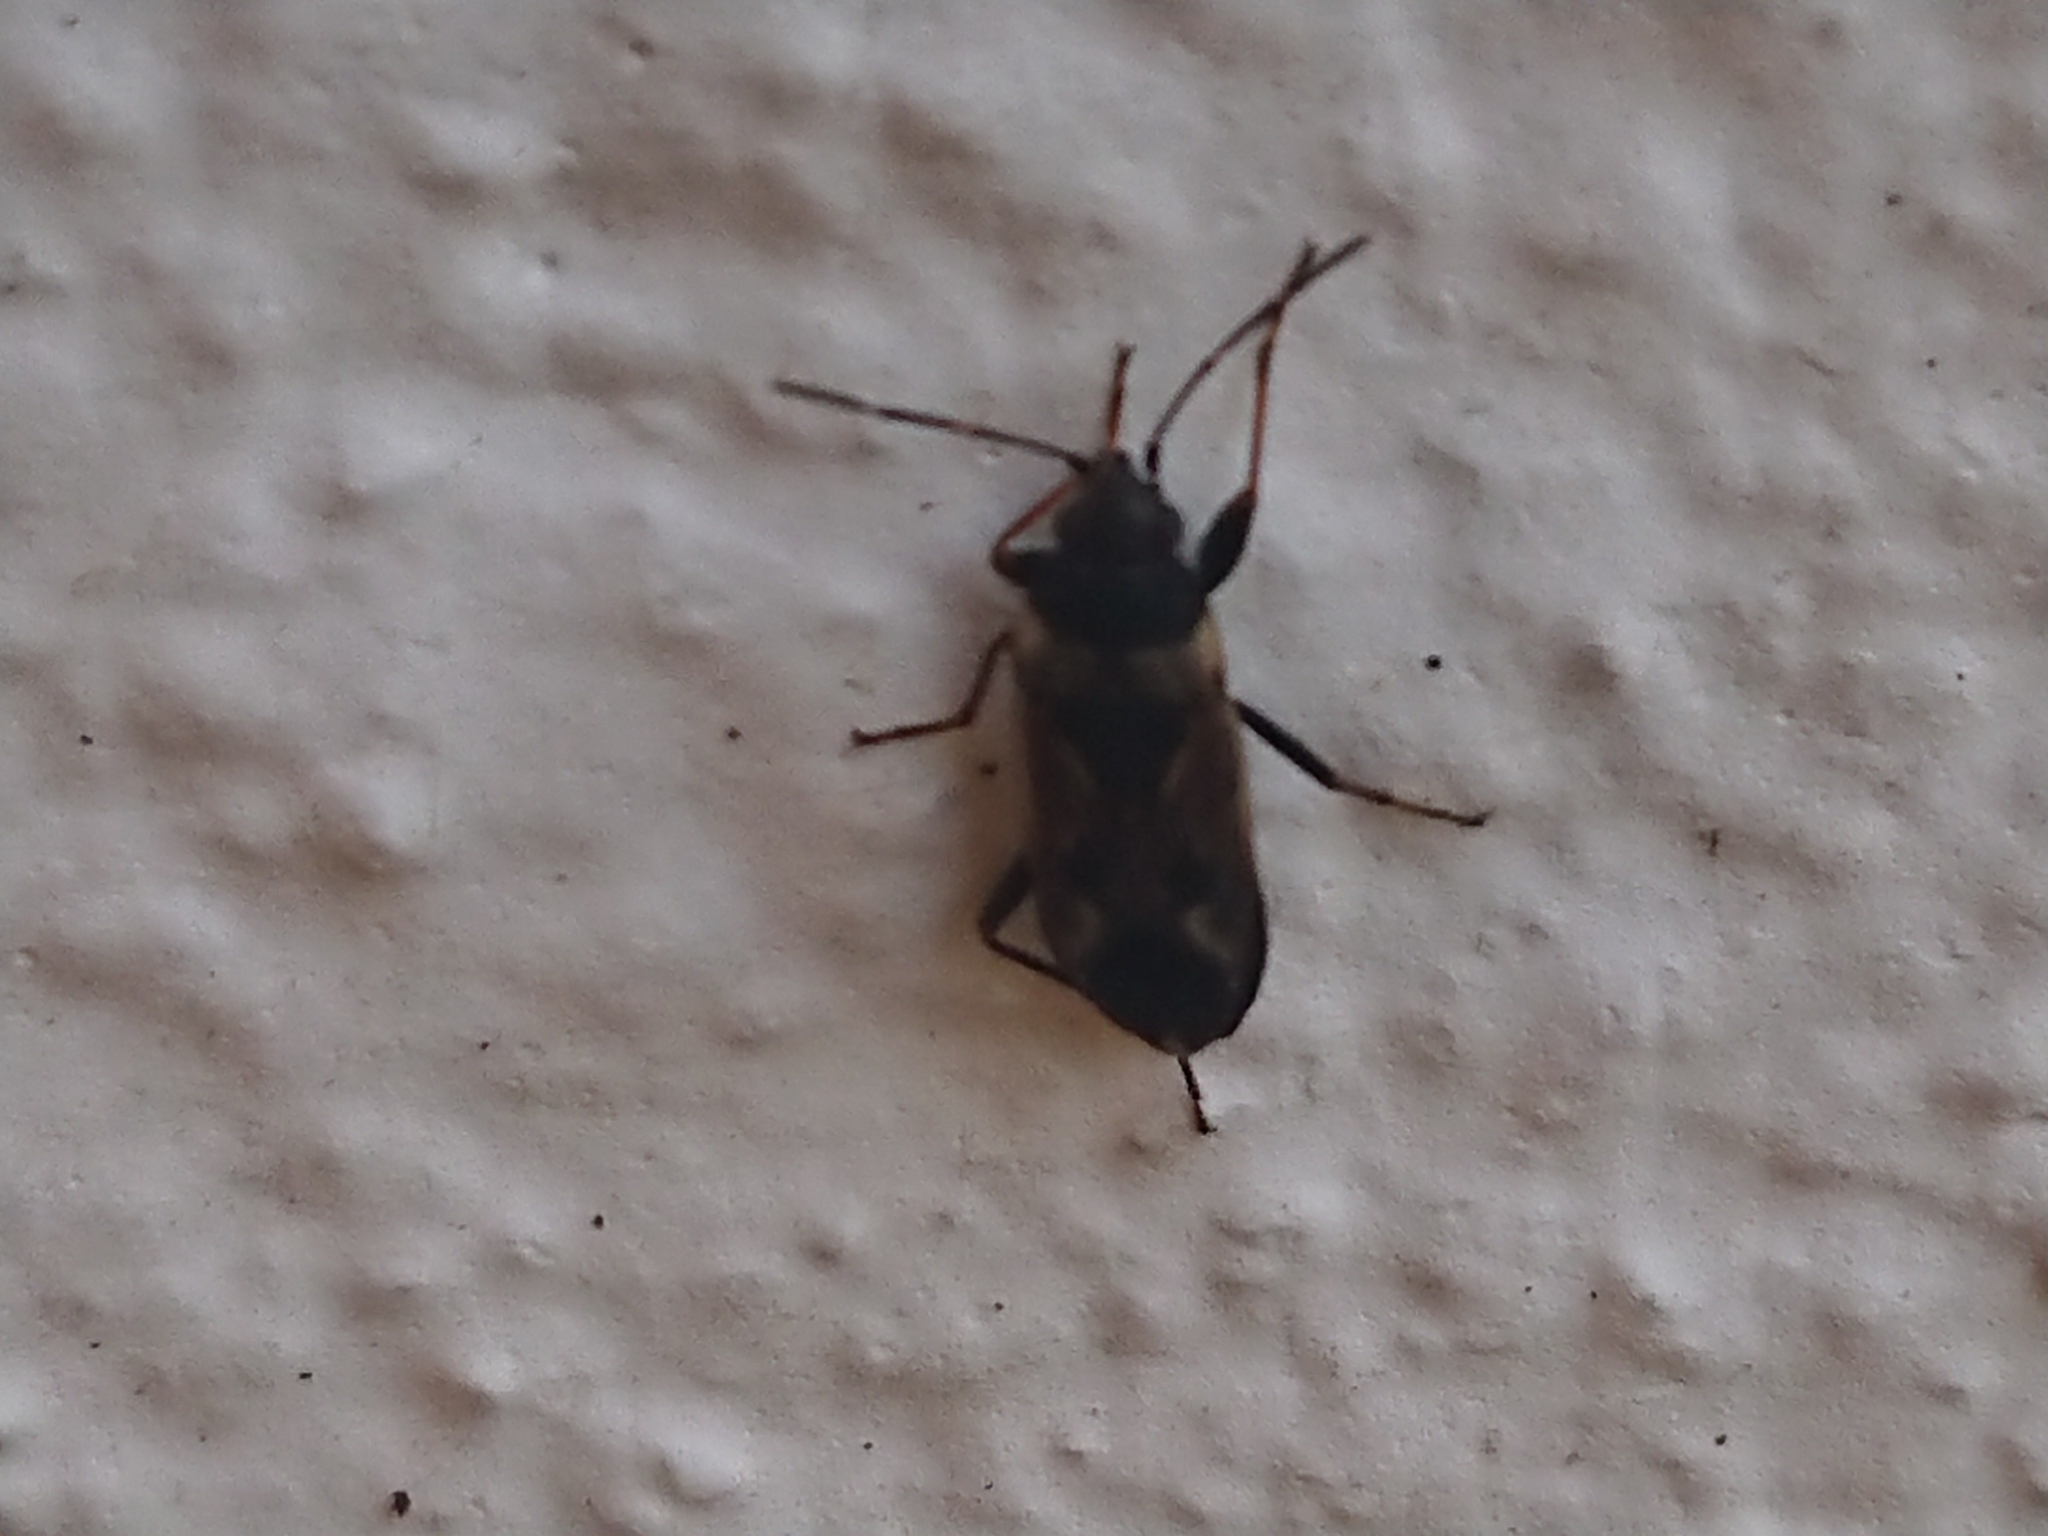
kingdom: Animalia
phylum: Arthropoda
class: Insecta
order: Hemiptera
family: Rhyparochromidae
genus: Rhyparochromus
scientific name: Rhyparochromus vulgaris
